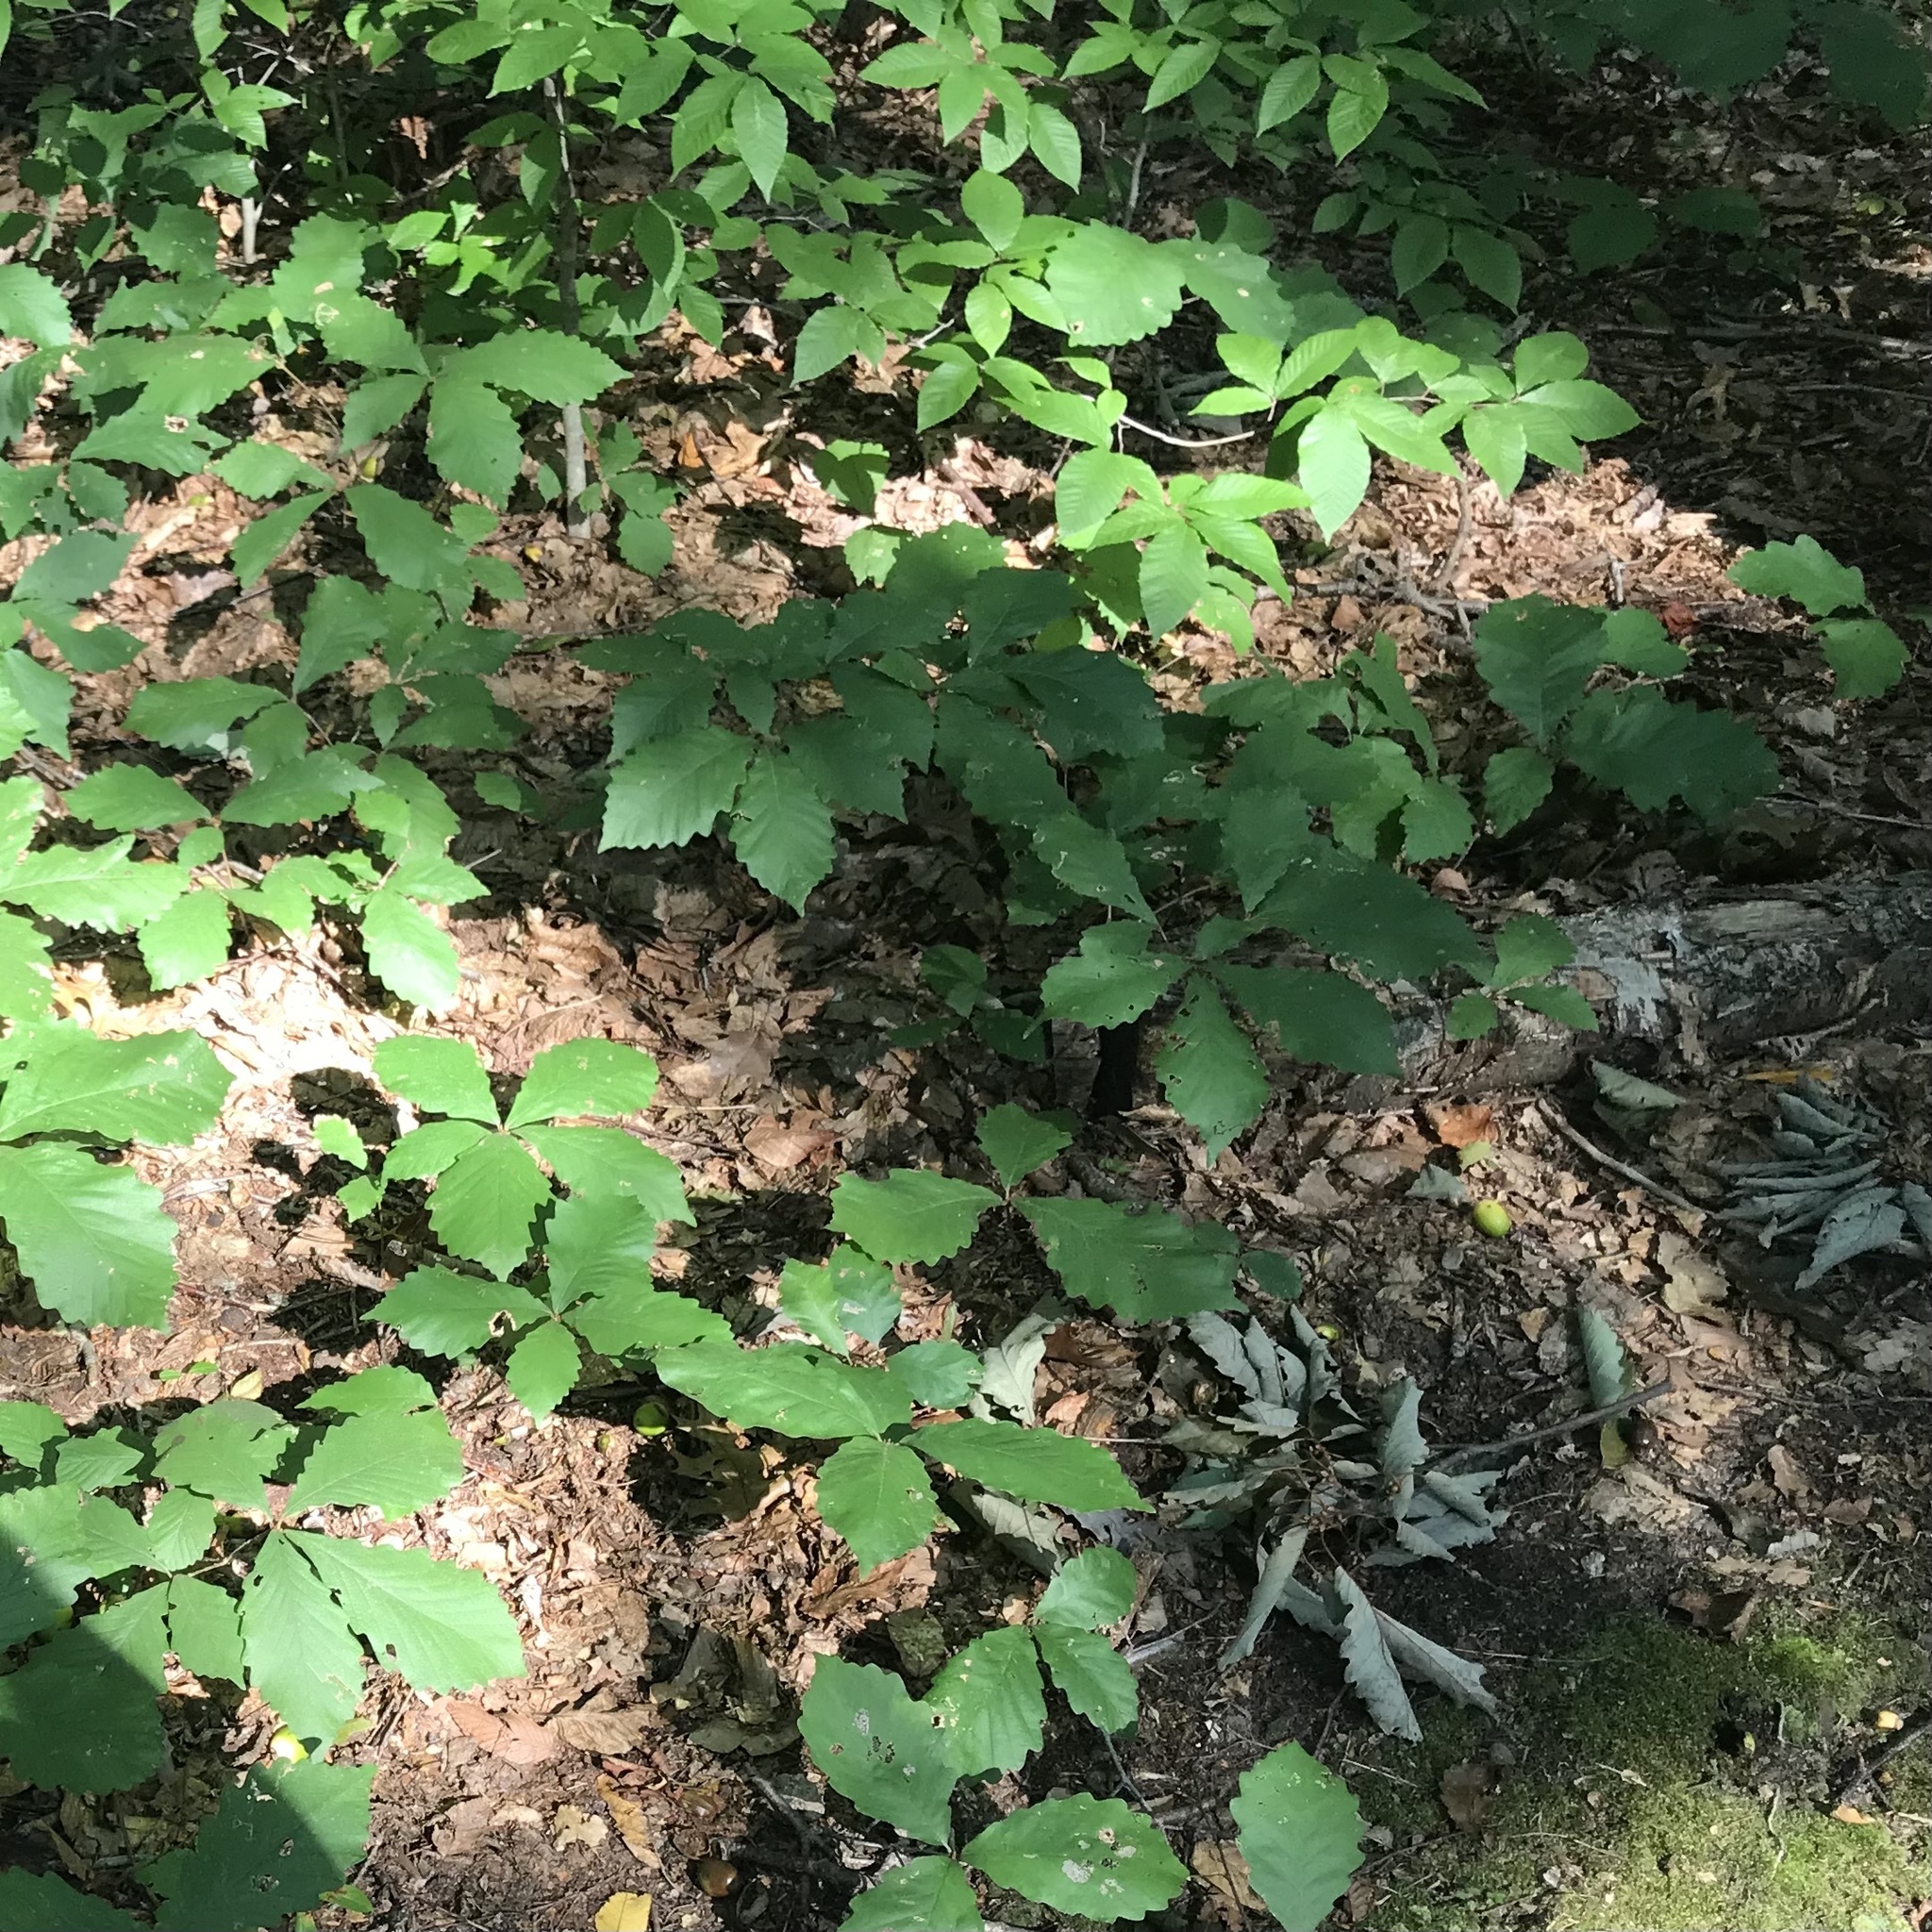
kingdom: Plantae
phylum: Tracheophyta
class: Magnoliopsida
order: Fagales
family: Fagaceae
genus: Quercus
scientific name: Quercus montana
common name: Chestnut oak
